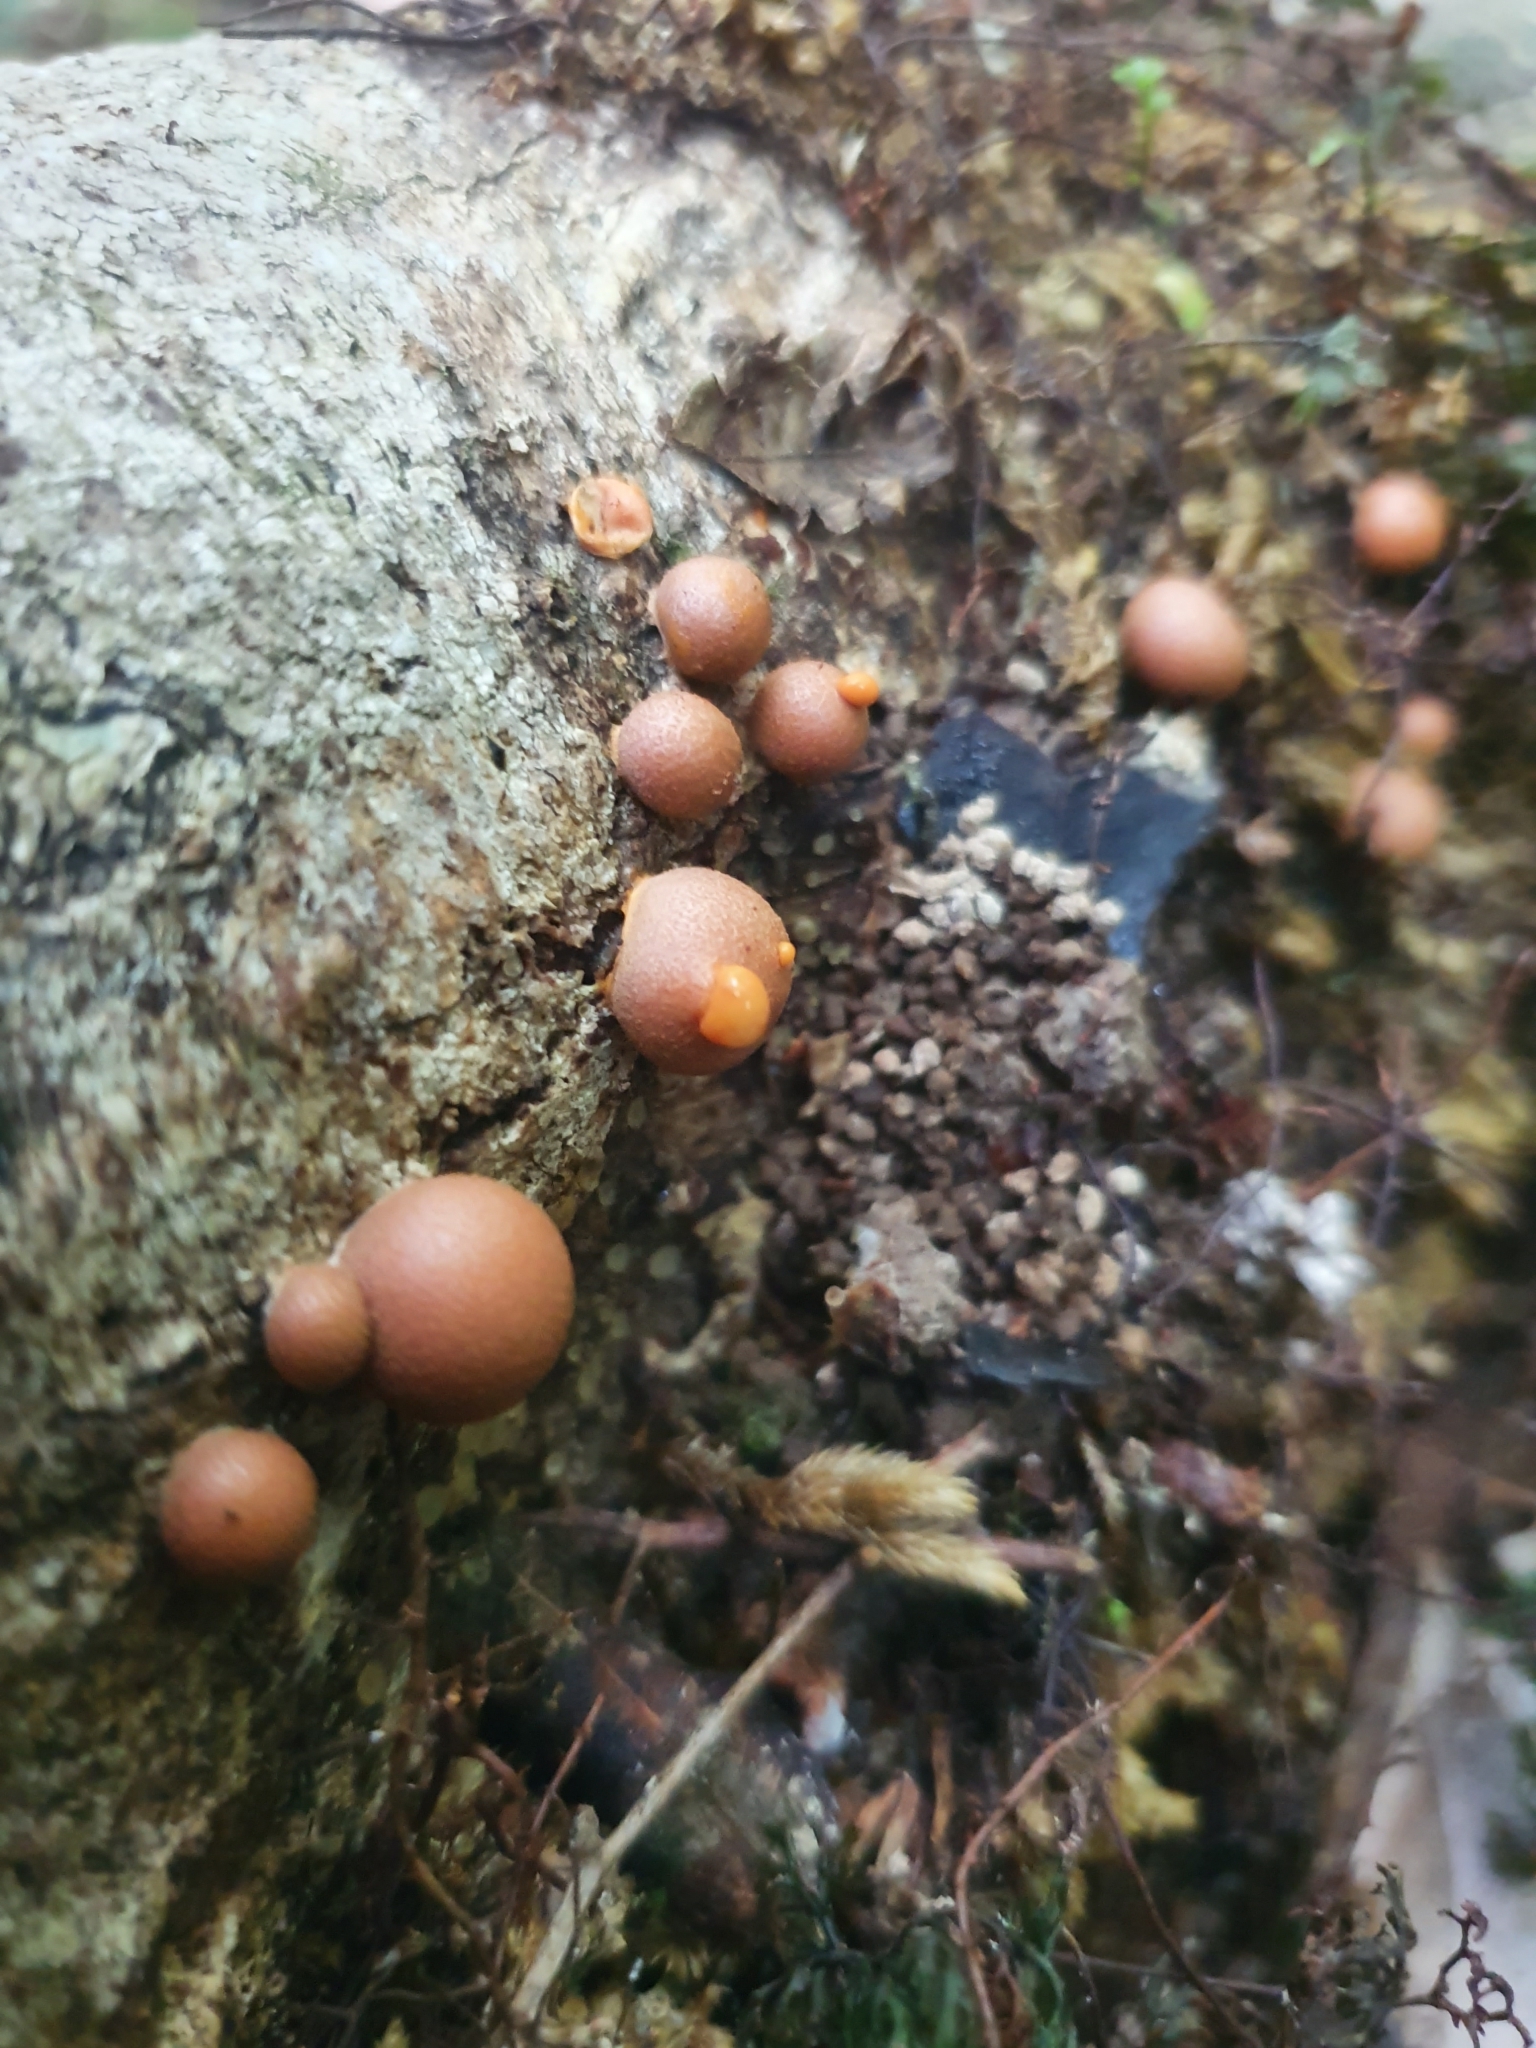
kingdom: Protozoa
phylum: Mycetozoa
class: Myxomycetes
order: Cribrariales
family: Tubiferaceae
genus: Lycogala
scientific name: Lycogala epidendrum
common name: Wolf's milk
